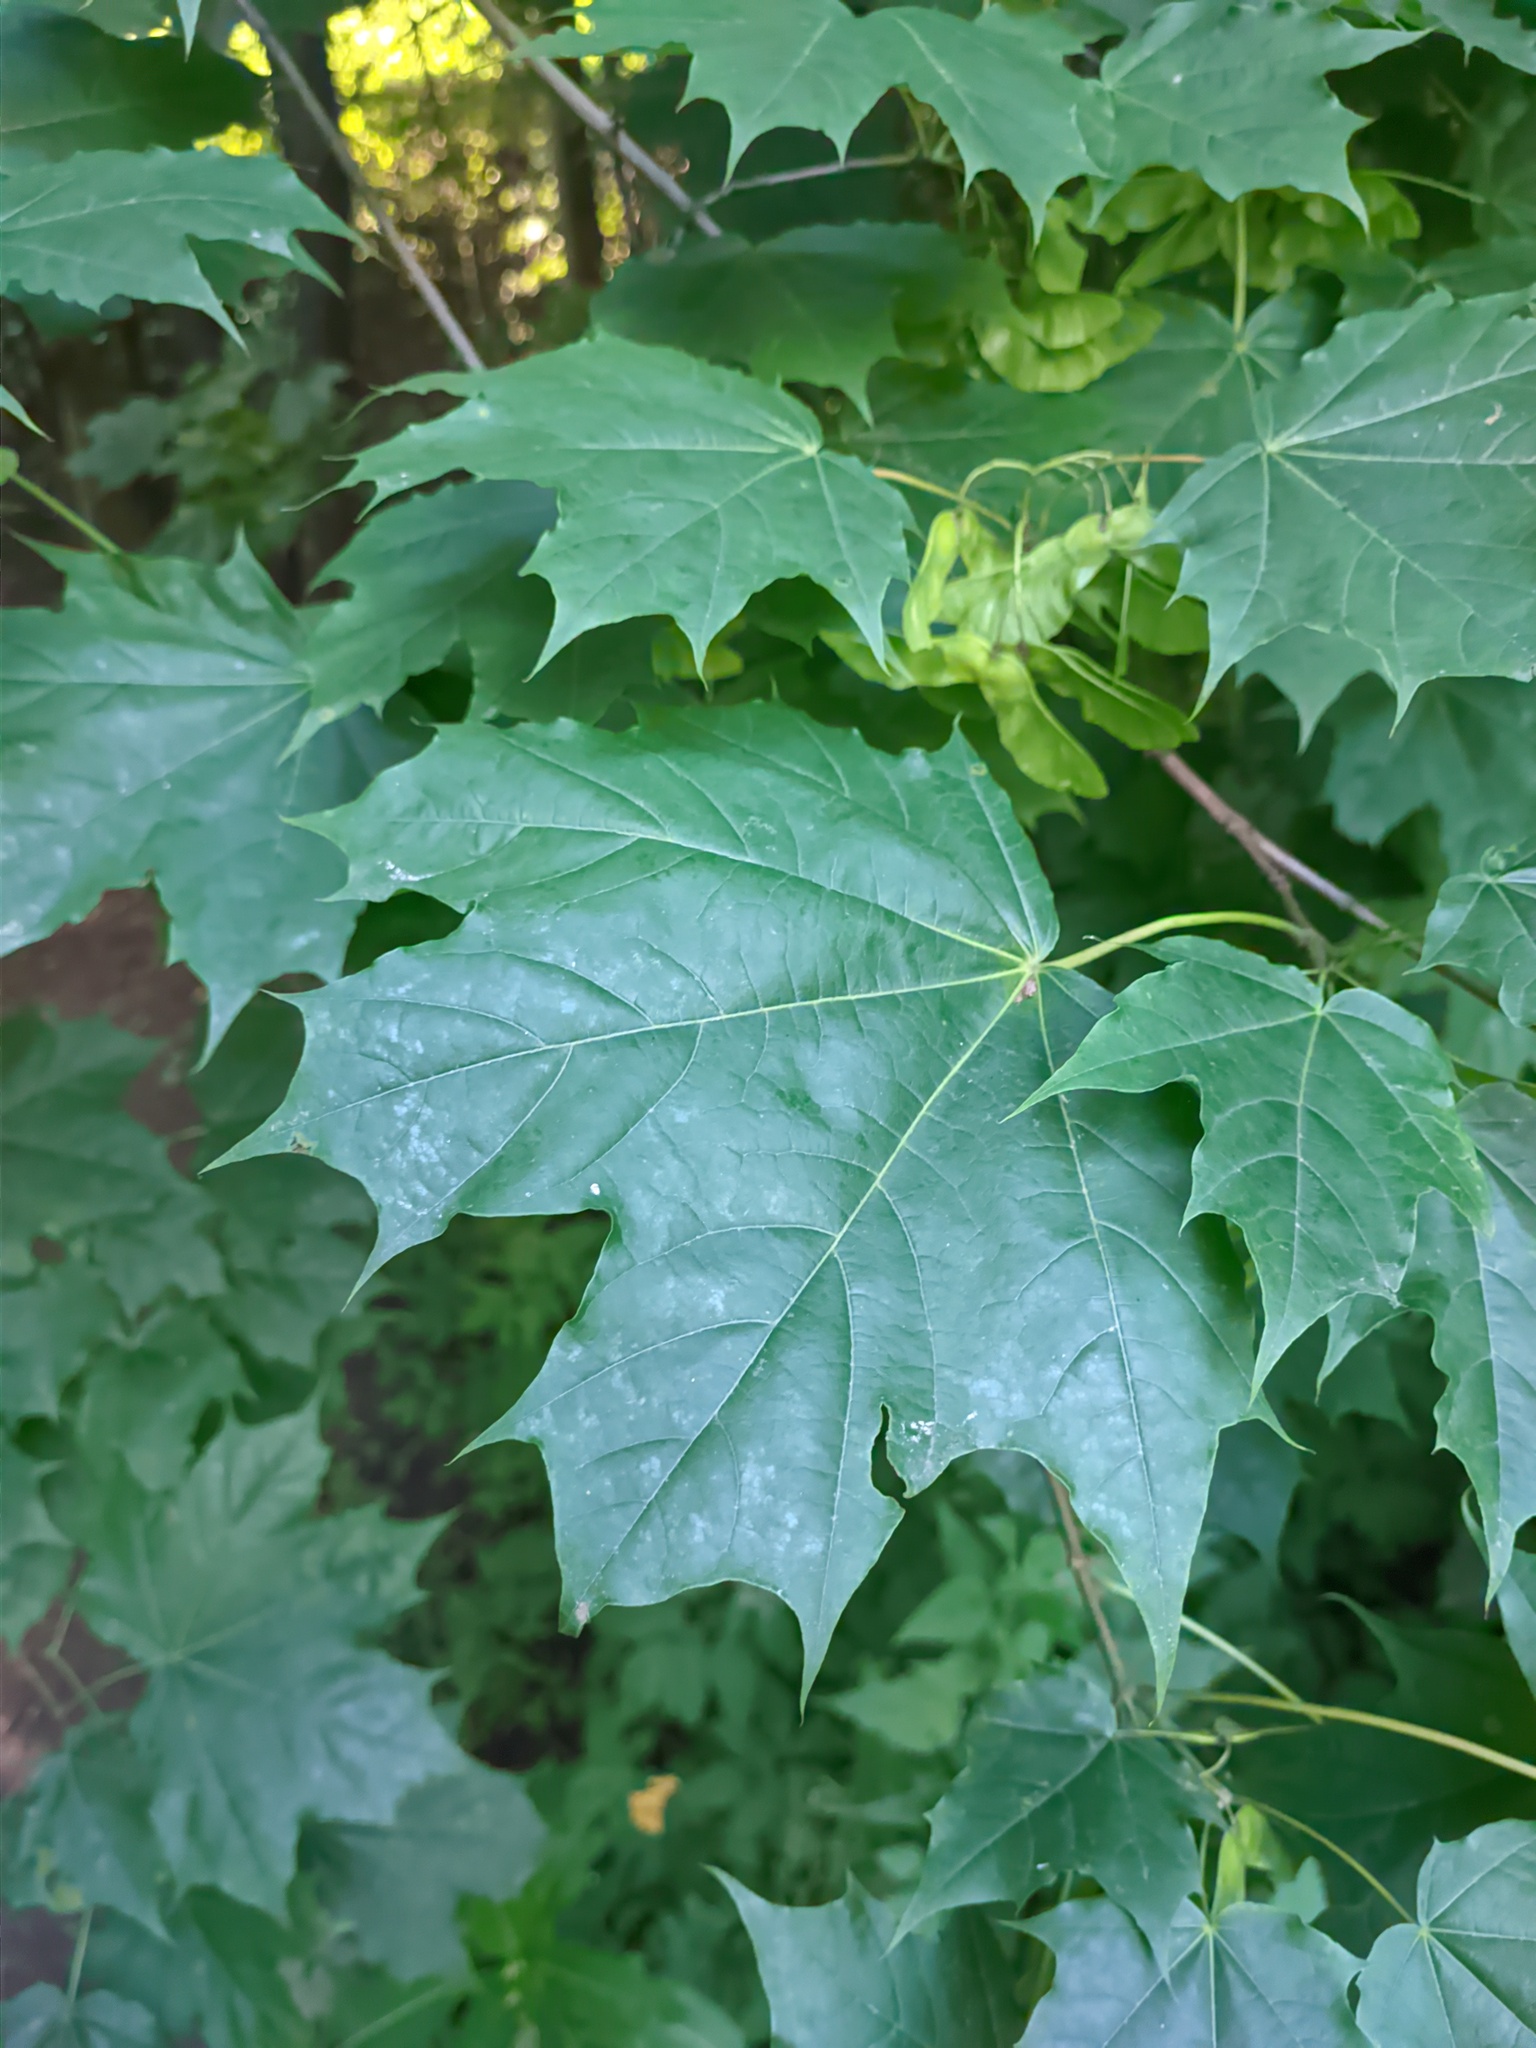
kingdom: Plantae
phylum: Tracheophyta
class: Magnoliopsida
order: Sapindales
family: Sapindaceae
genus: Acer
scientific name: Acer platanoides
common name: Norway maple
